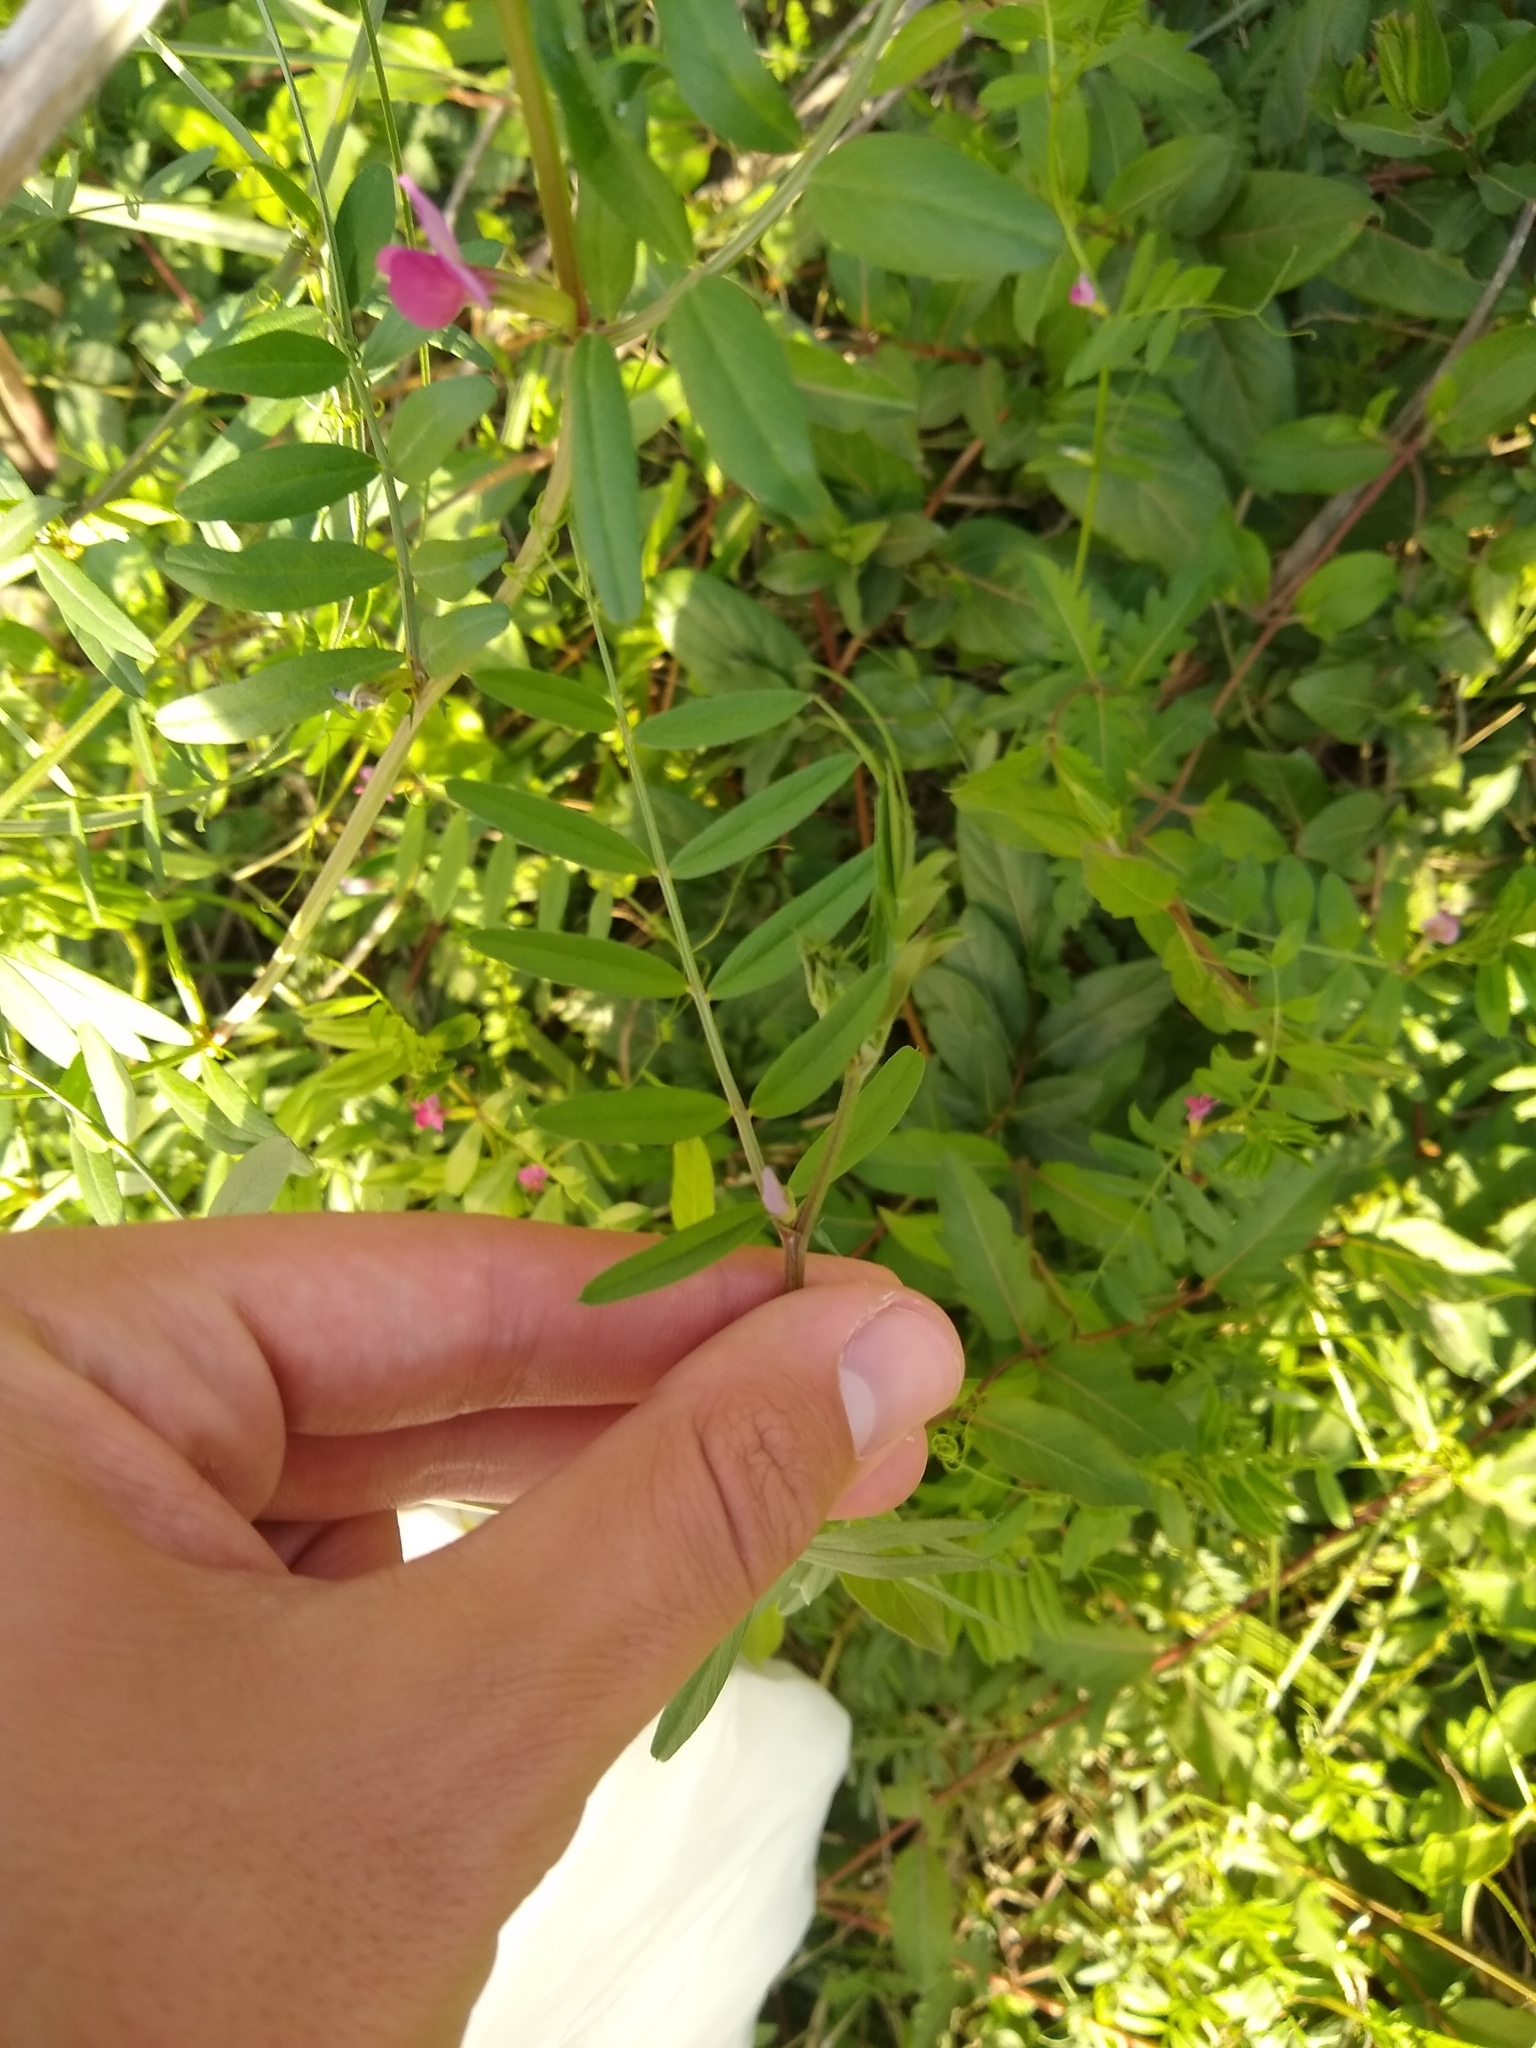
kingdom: Plantae
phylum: Tracheophyta
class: Magnoliopsida
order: Fabales
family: Fabaceae
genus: Vicia
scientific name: Vicia sativa
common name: Garden vetch
